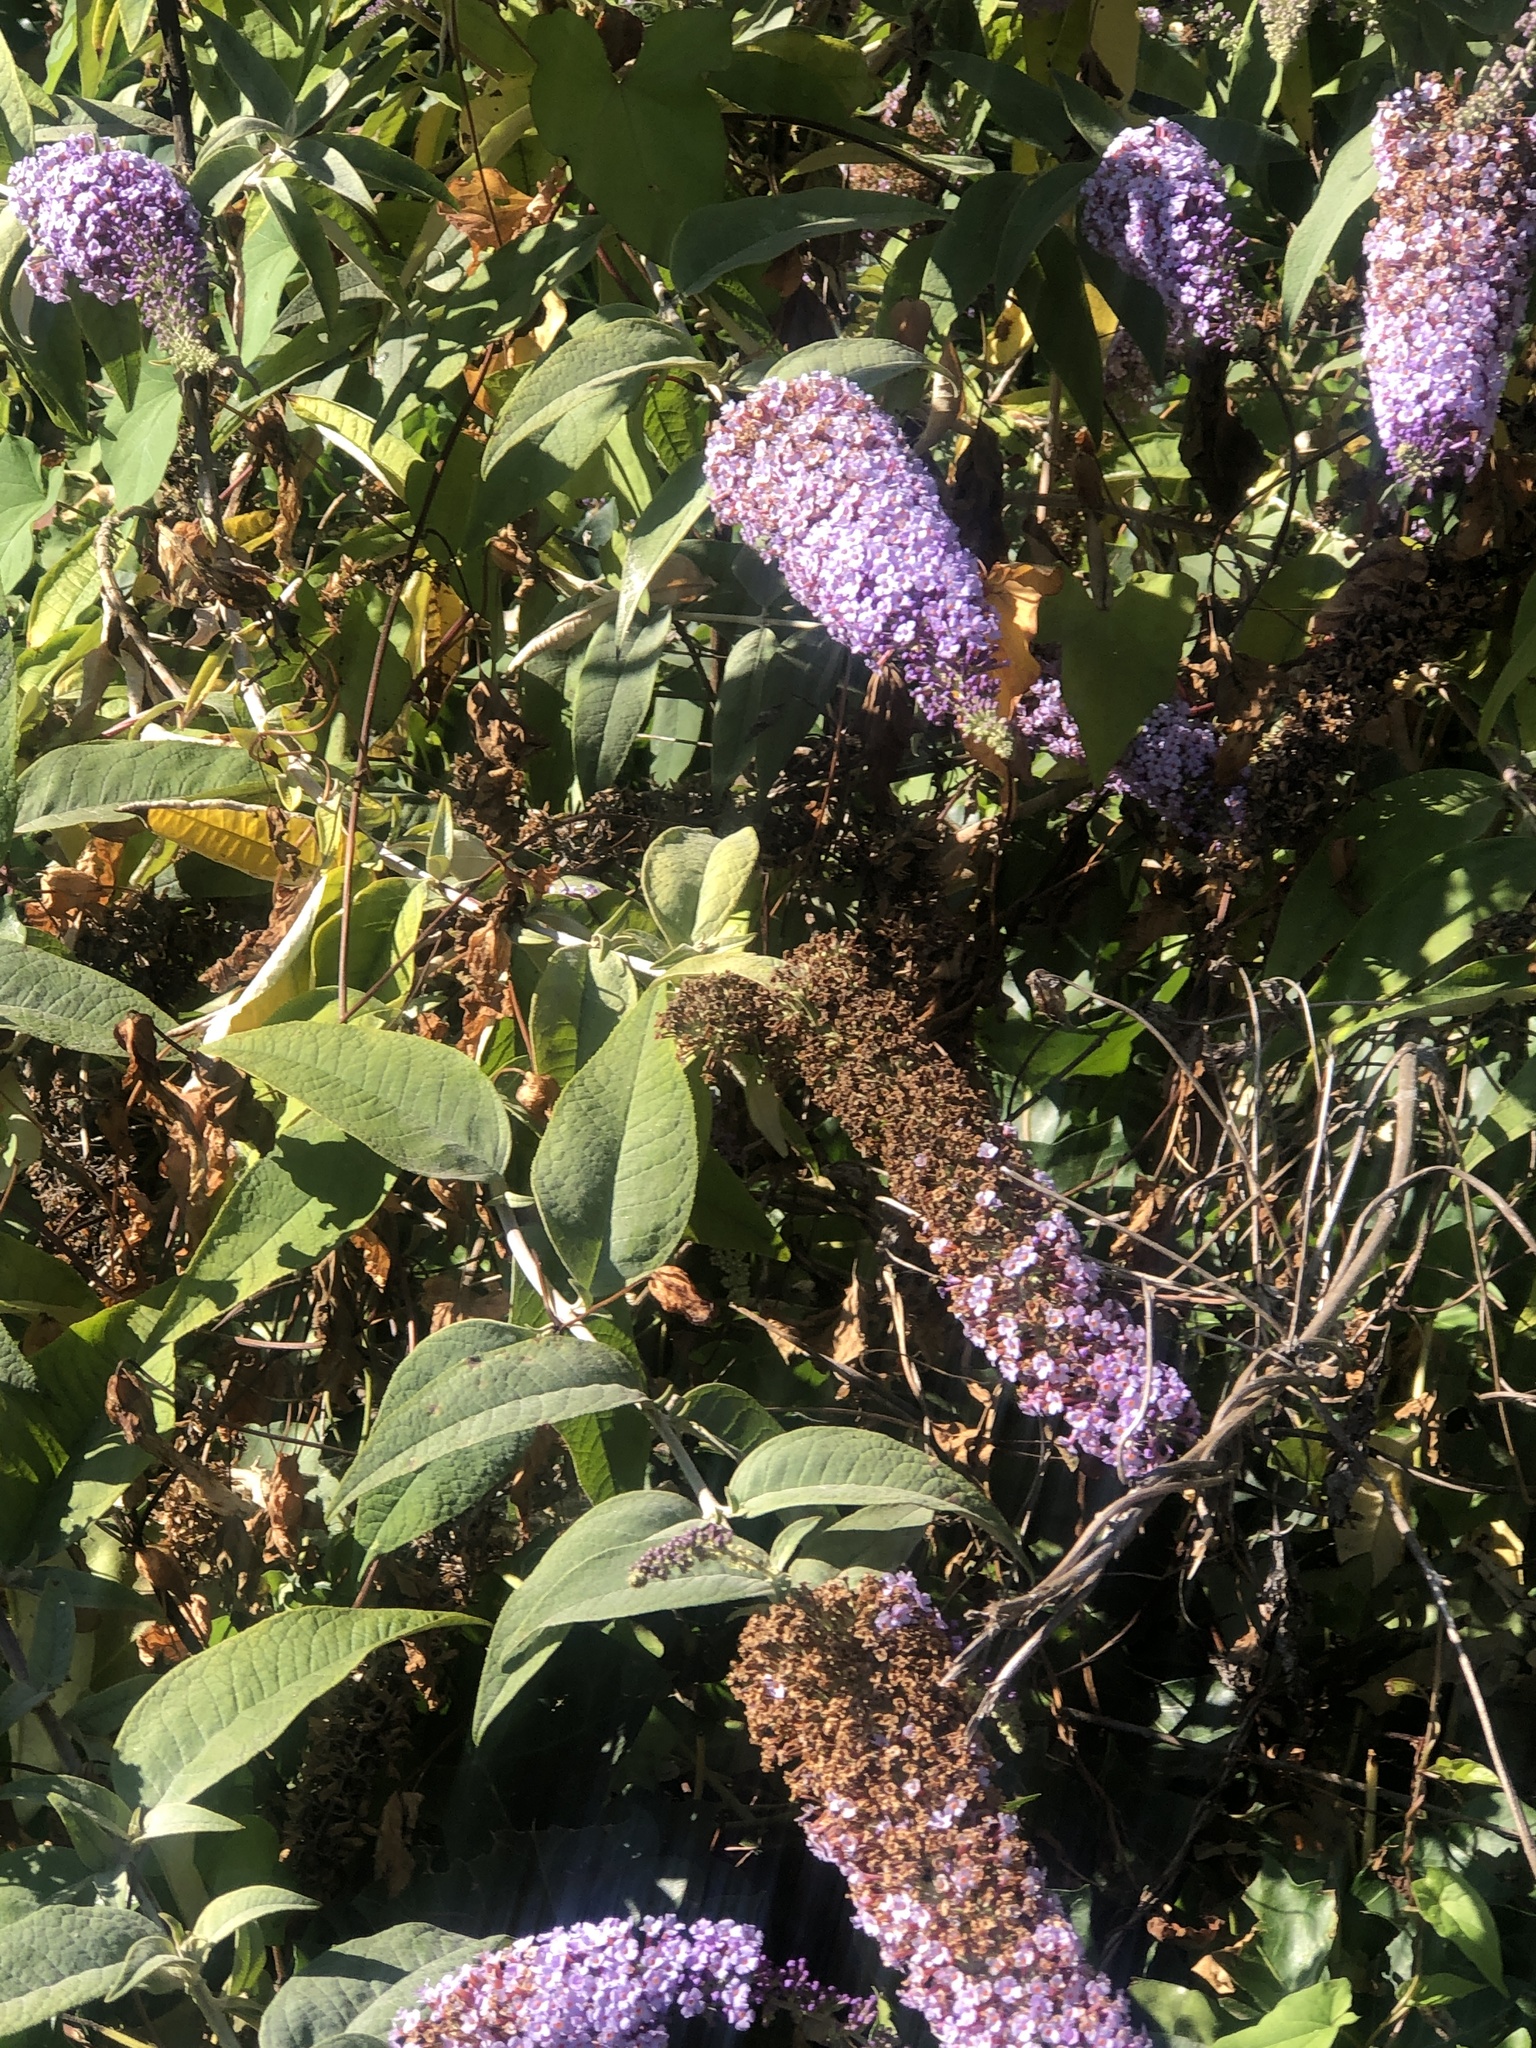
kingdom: Plantae
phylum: Tracheophyta
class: Magnoliopsida
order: Lamiales
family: Scrophulariaceae
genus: Buddleja
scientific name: Buddleja davidii
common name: Butterfly-bush
